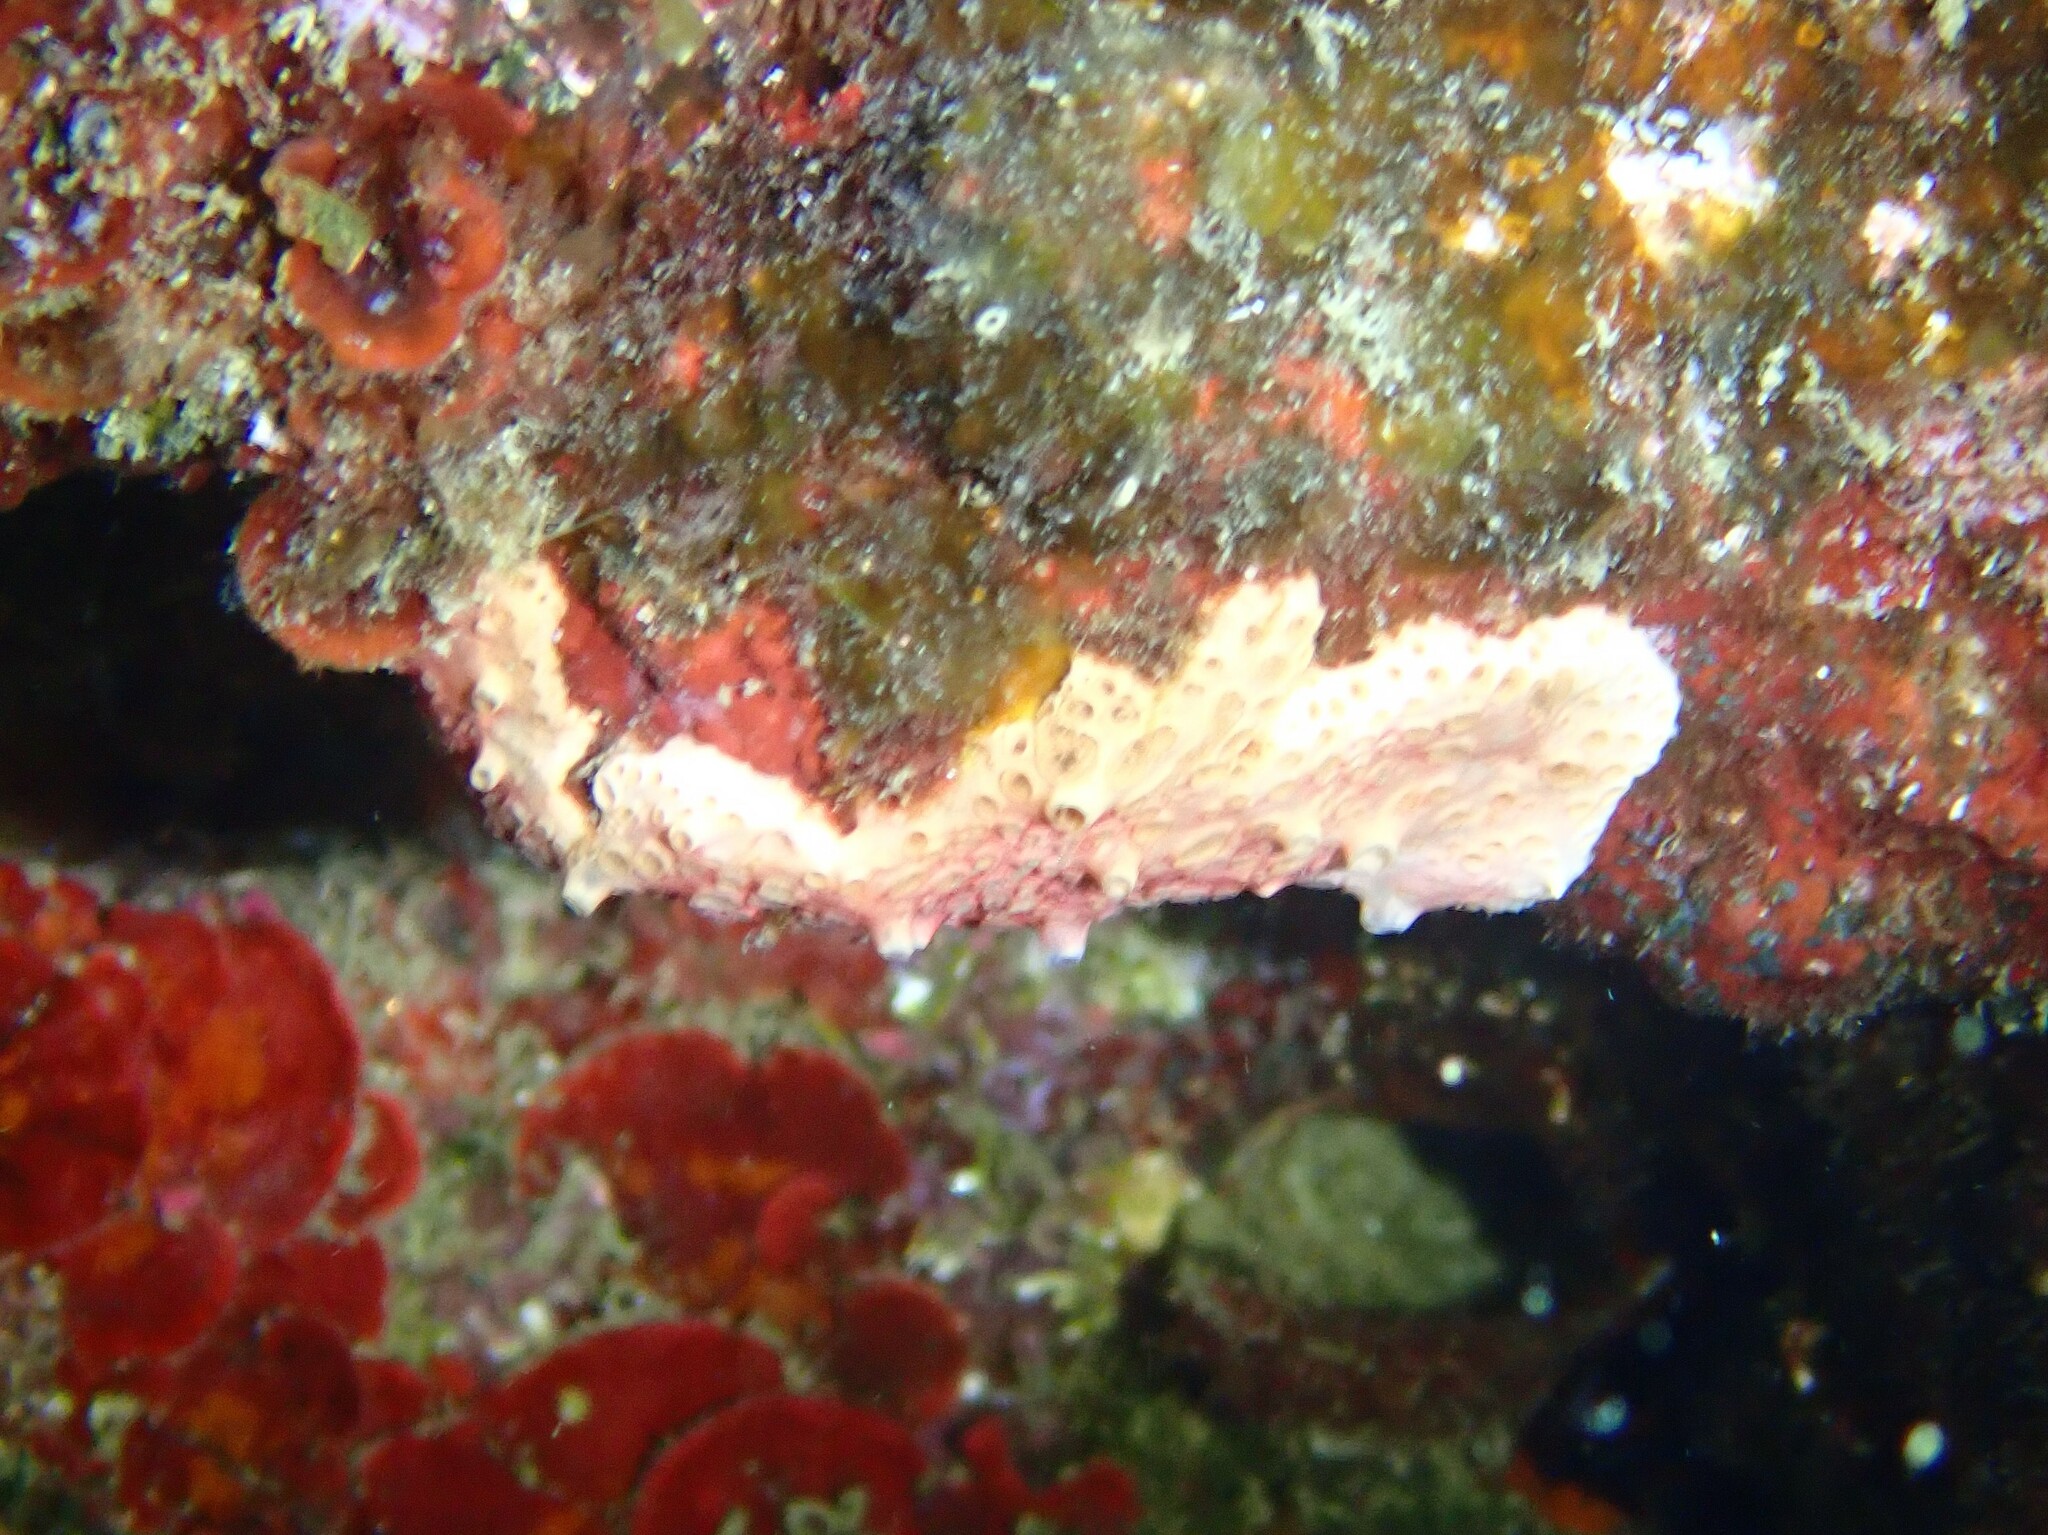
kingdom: Animalia
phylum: Porifera
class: Demospongiae
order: Poecilosclerida
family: Hymedesmiidae
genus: Hemimycale
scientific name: Hemimycale columella
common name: Crater sponge
